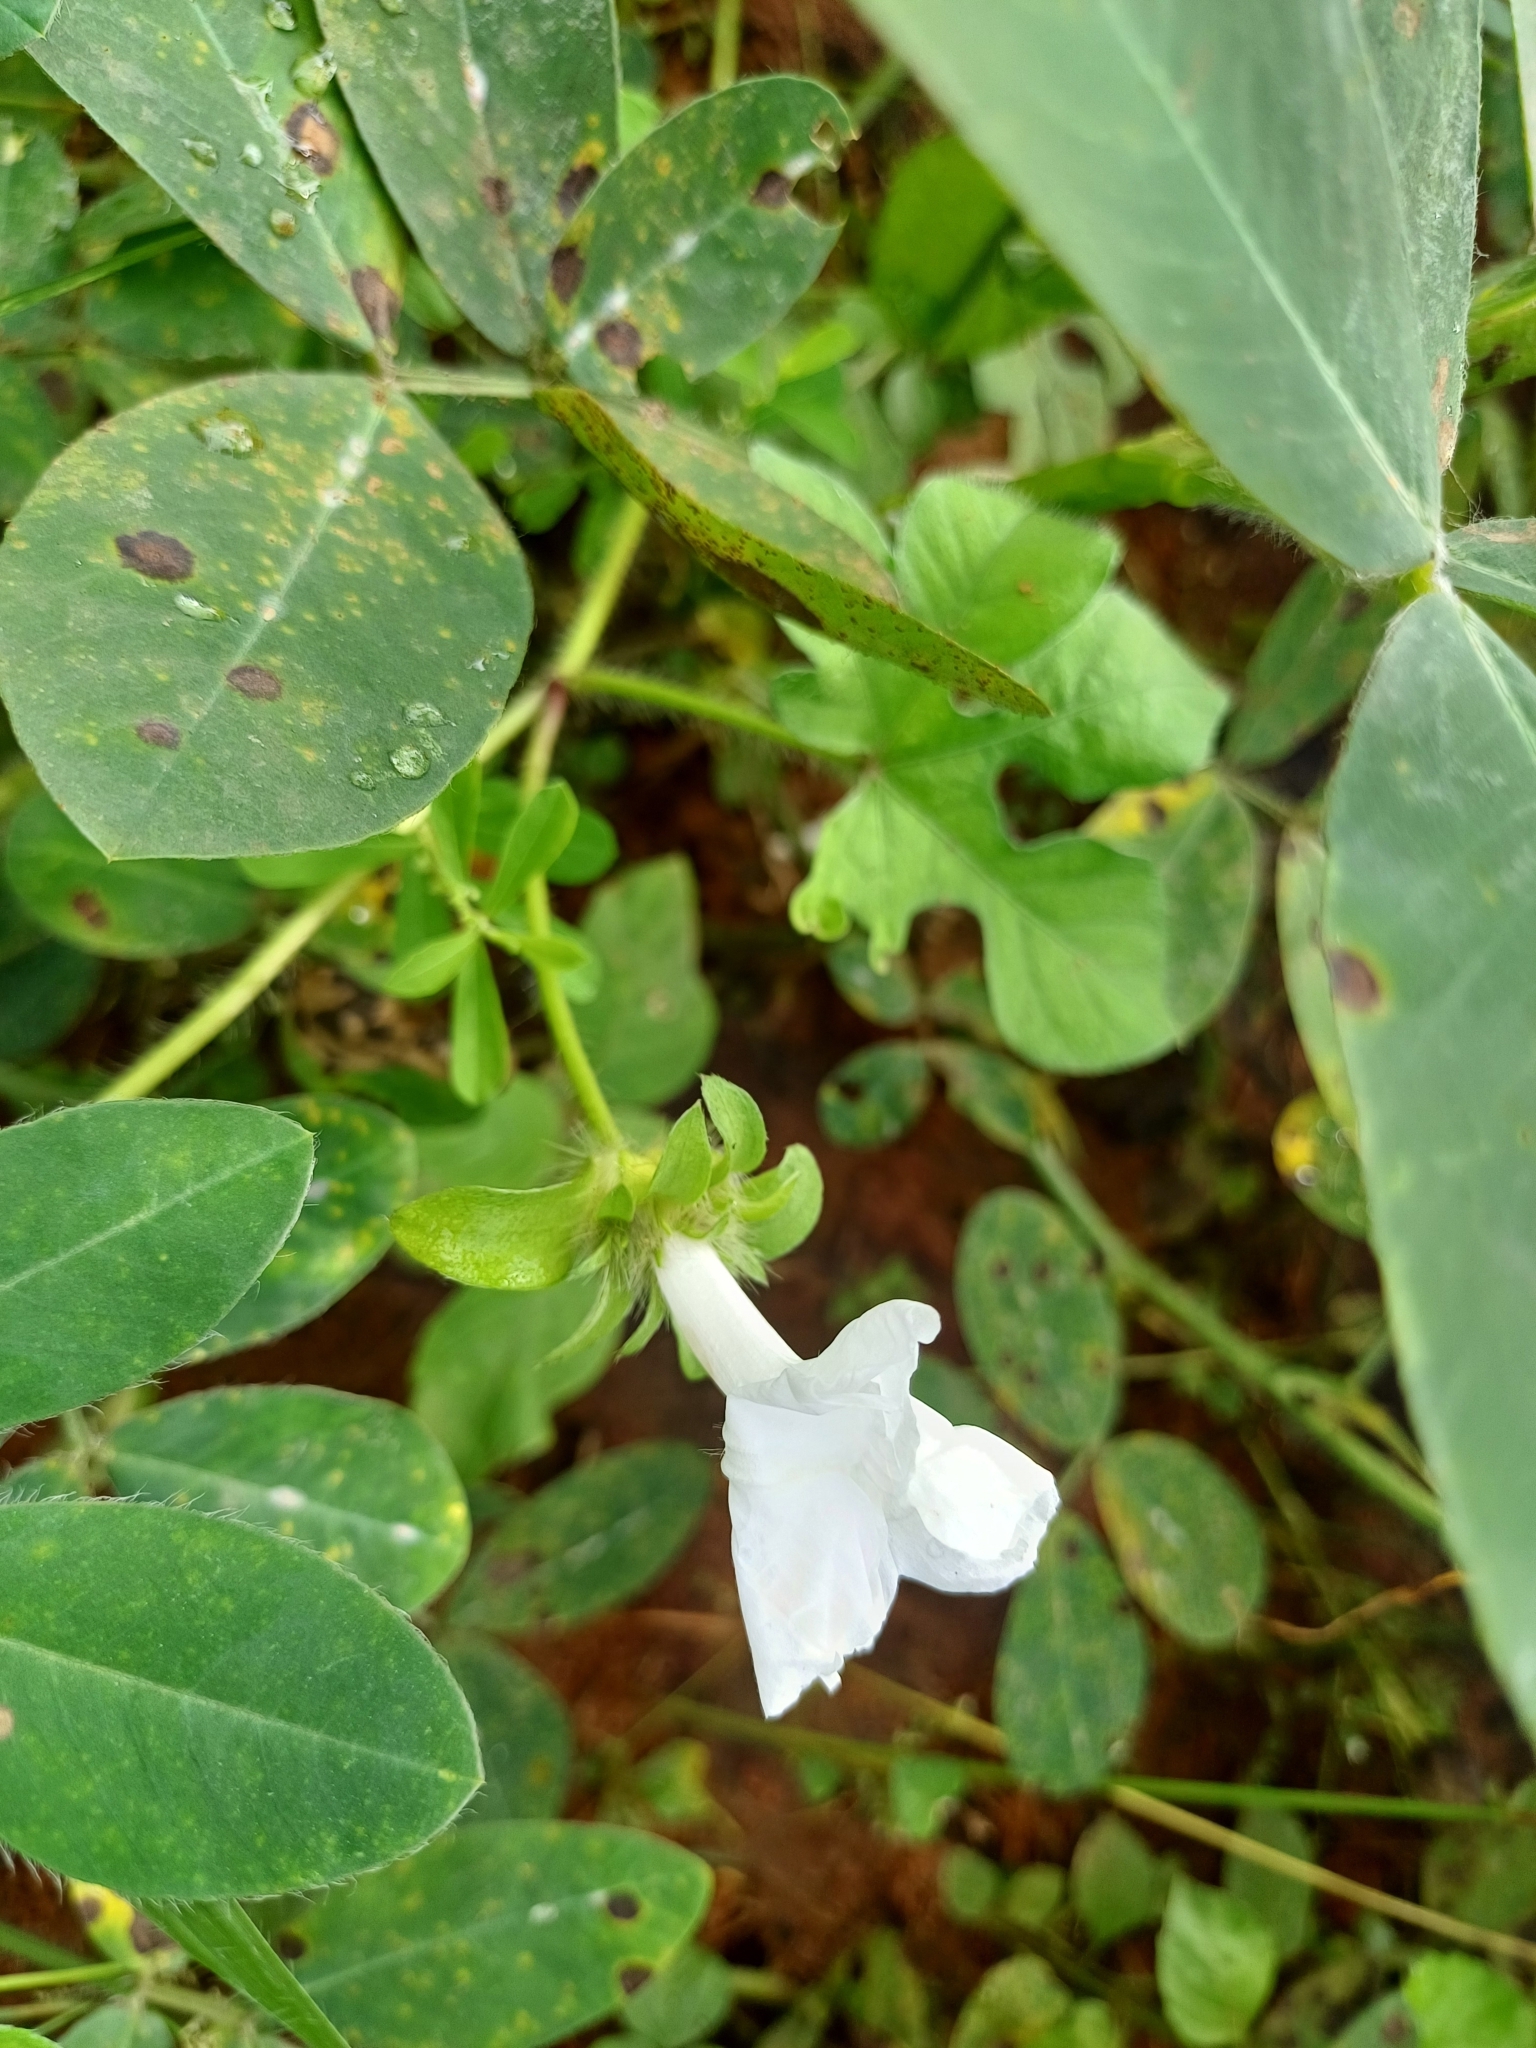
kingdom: Plantae
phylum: Tracheophyta
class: Magnoliopsida
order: Solanales
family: Convolvulaceae
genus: Ipomoea
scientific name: Ipomoea pes-tigridis
